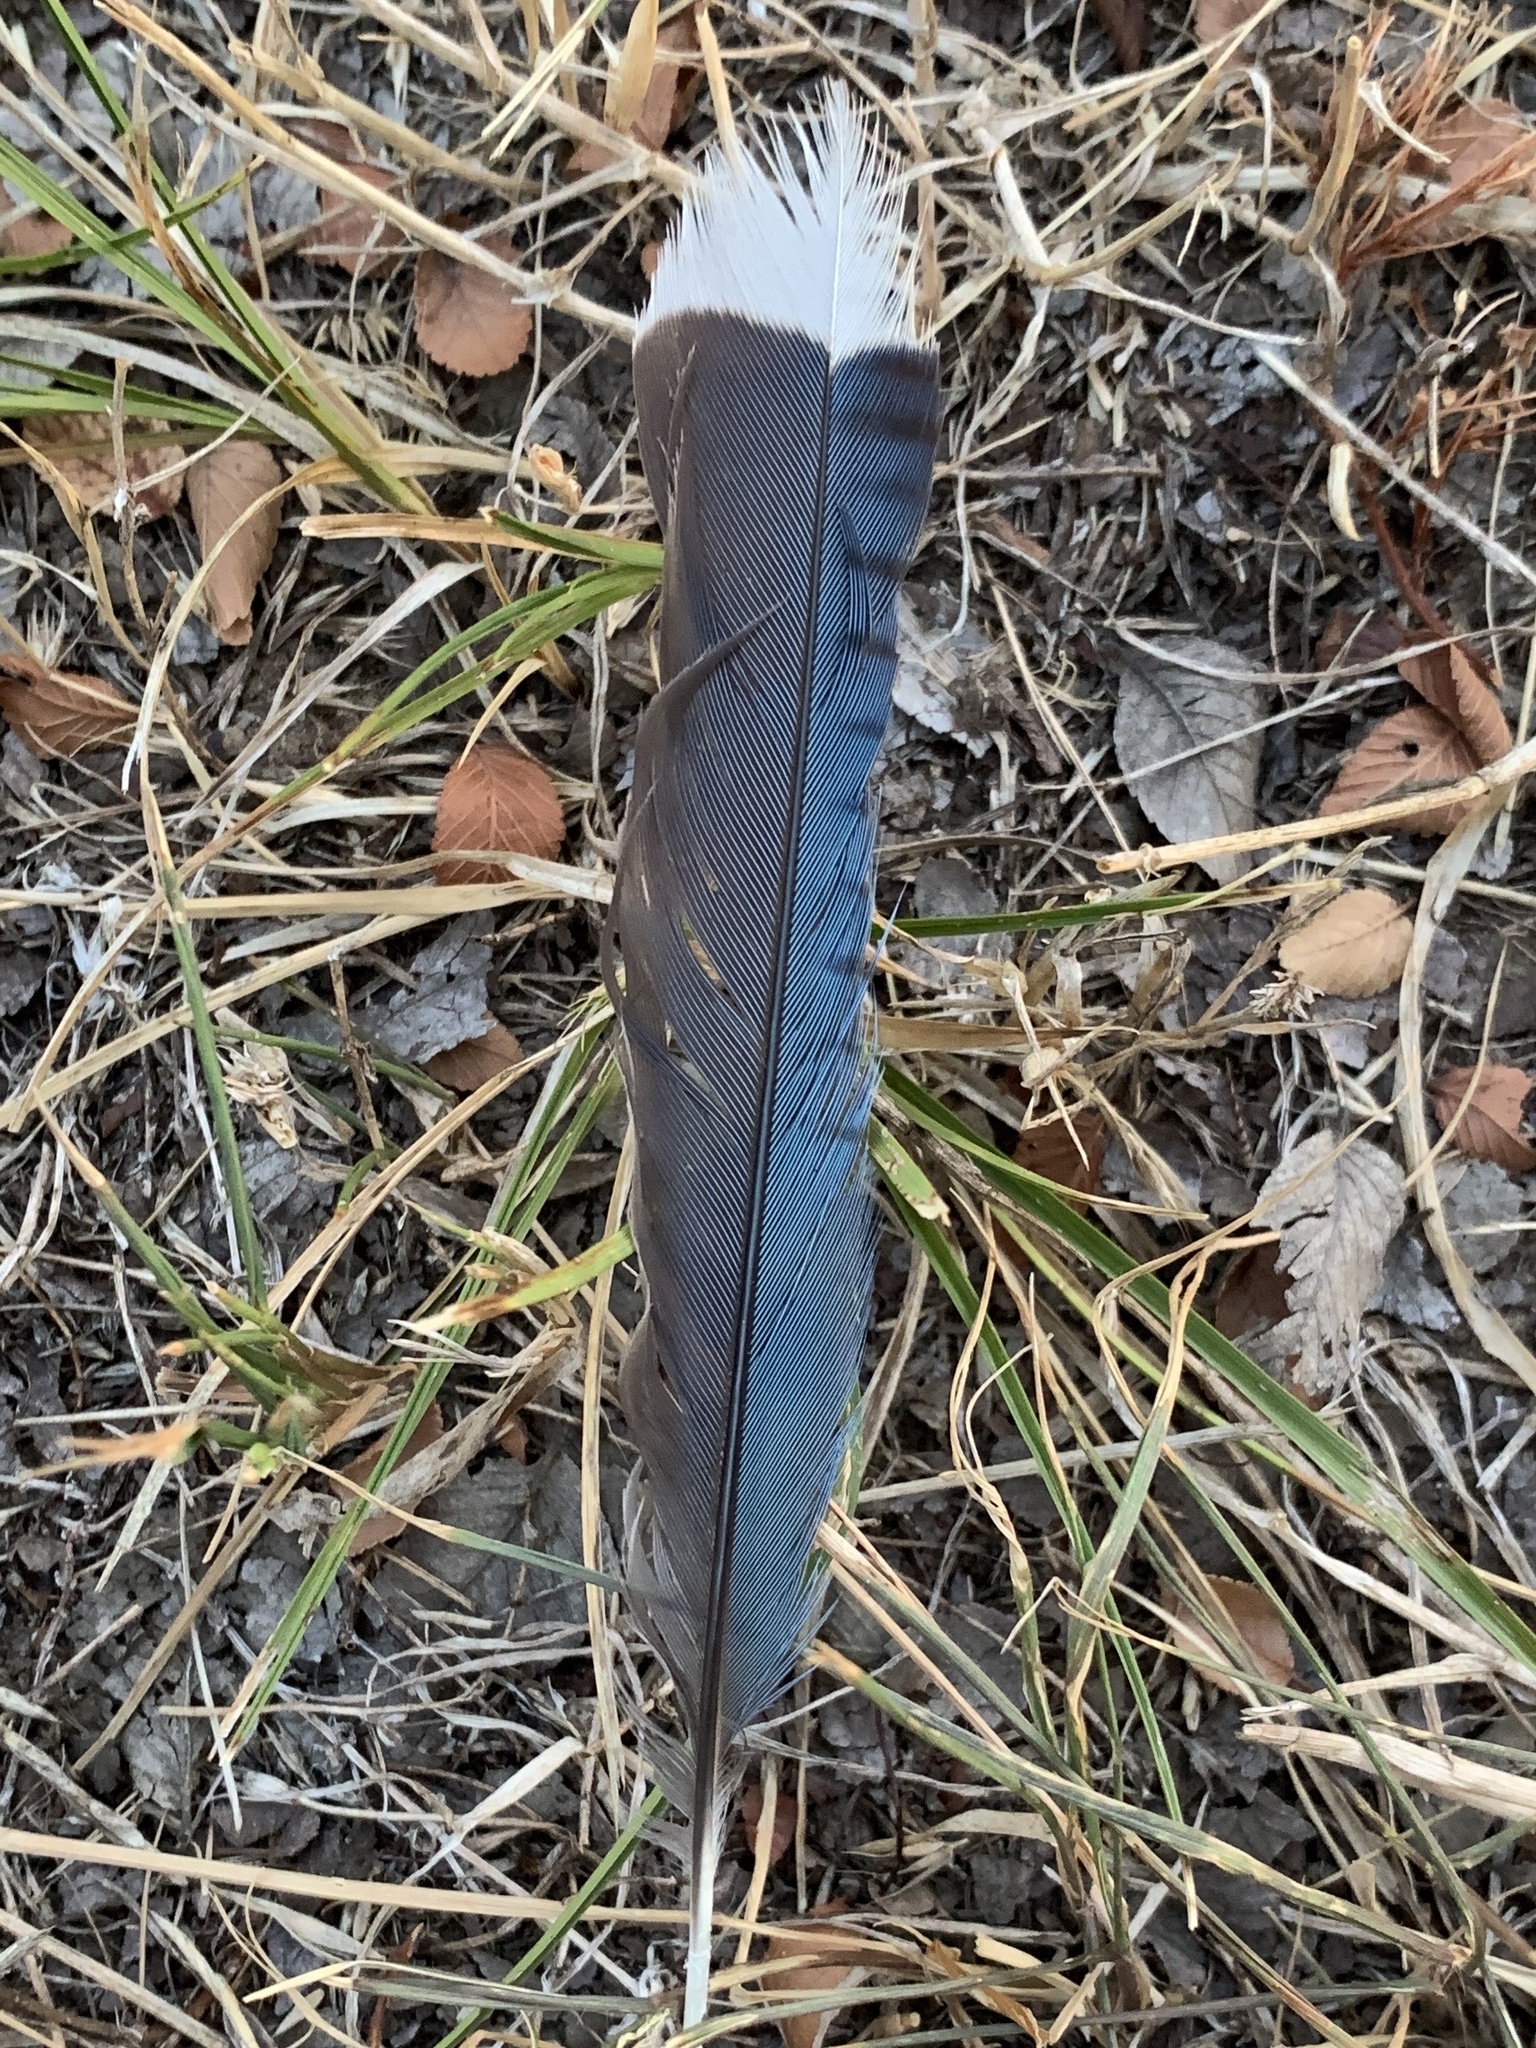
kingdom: Animalia
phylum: Chordata
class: Aves
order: Passeriformes
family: Corvidae
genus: Cyanocitta
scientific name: Cyanocitta cristata
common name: Blue jay
